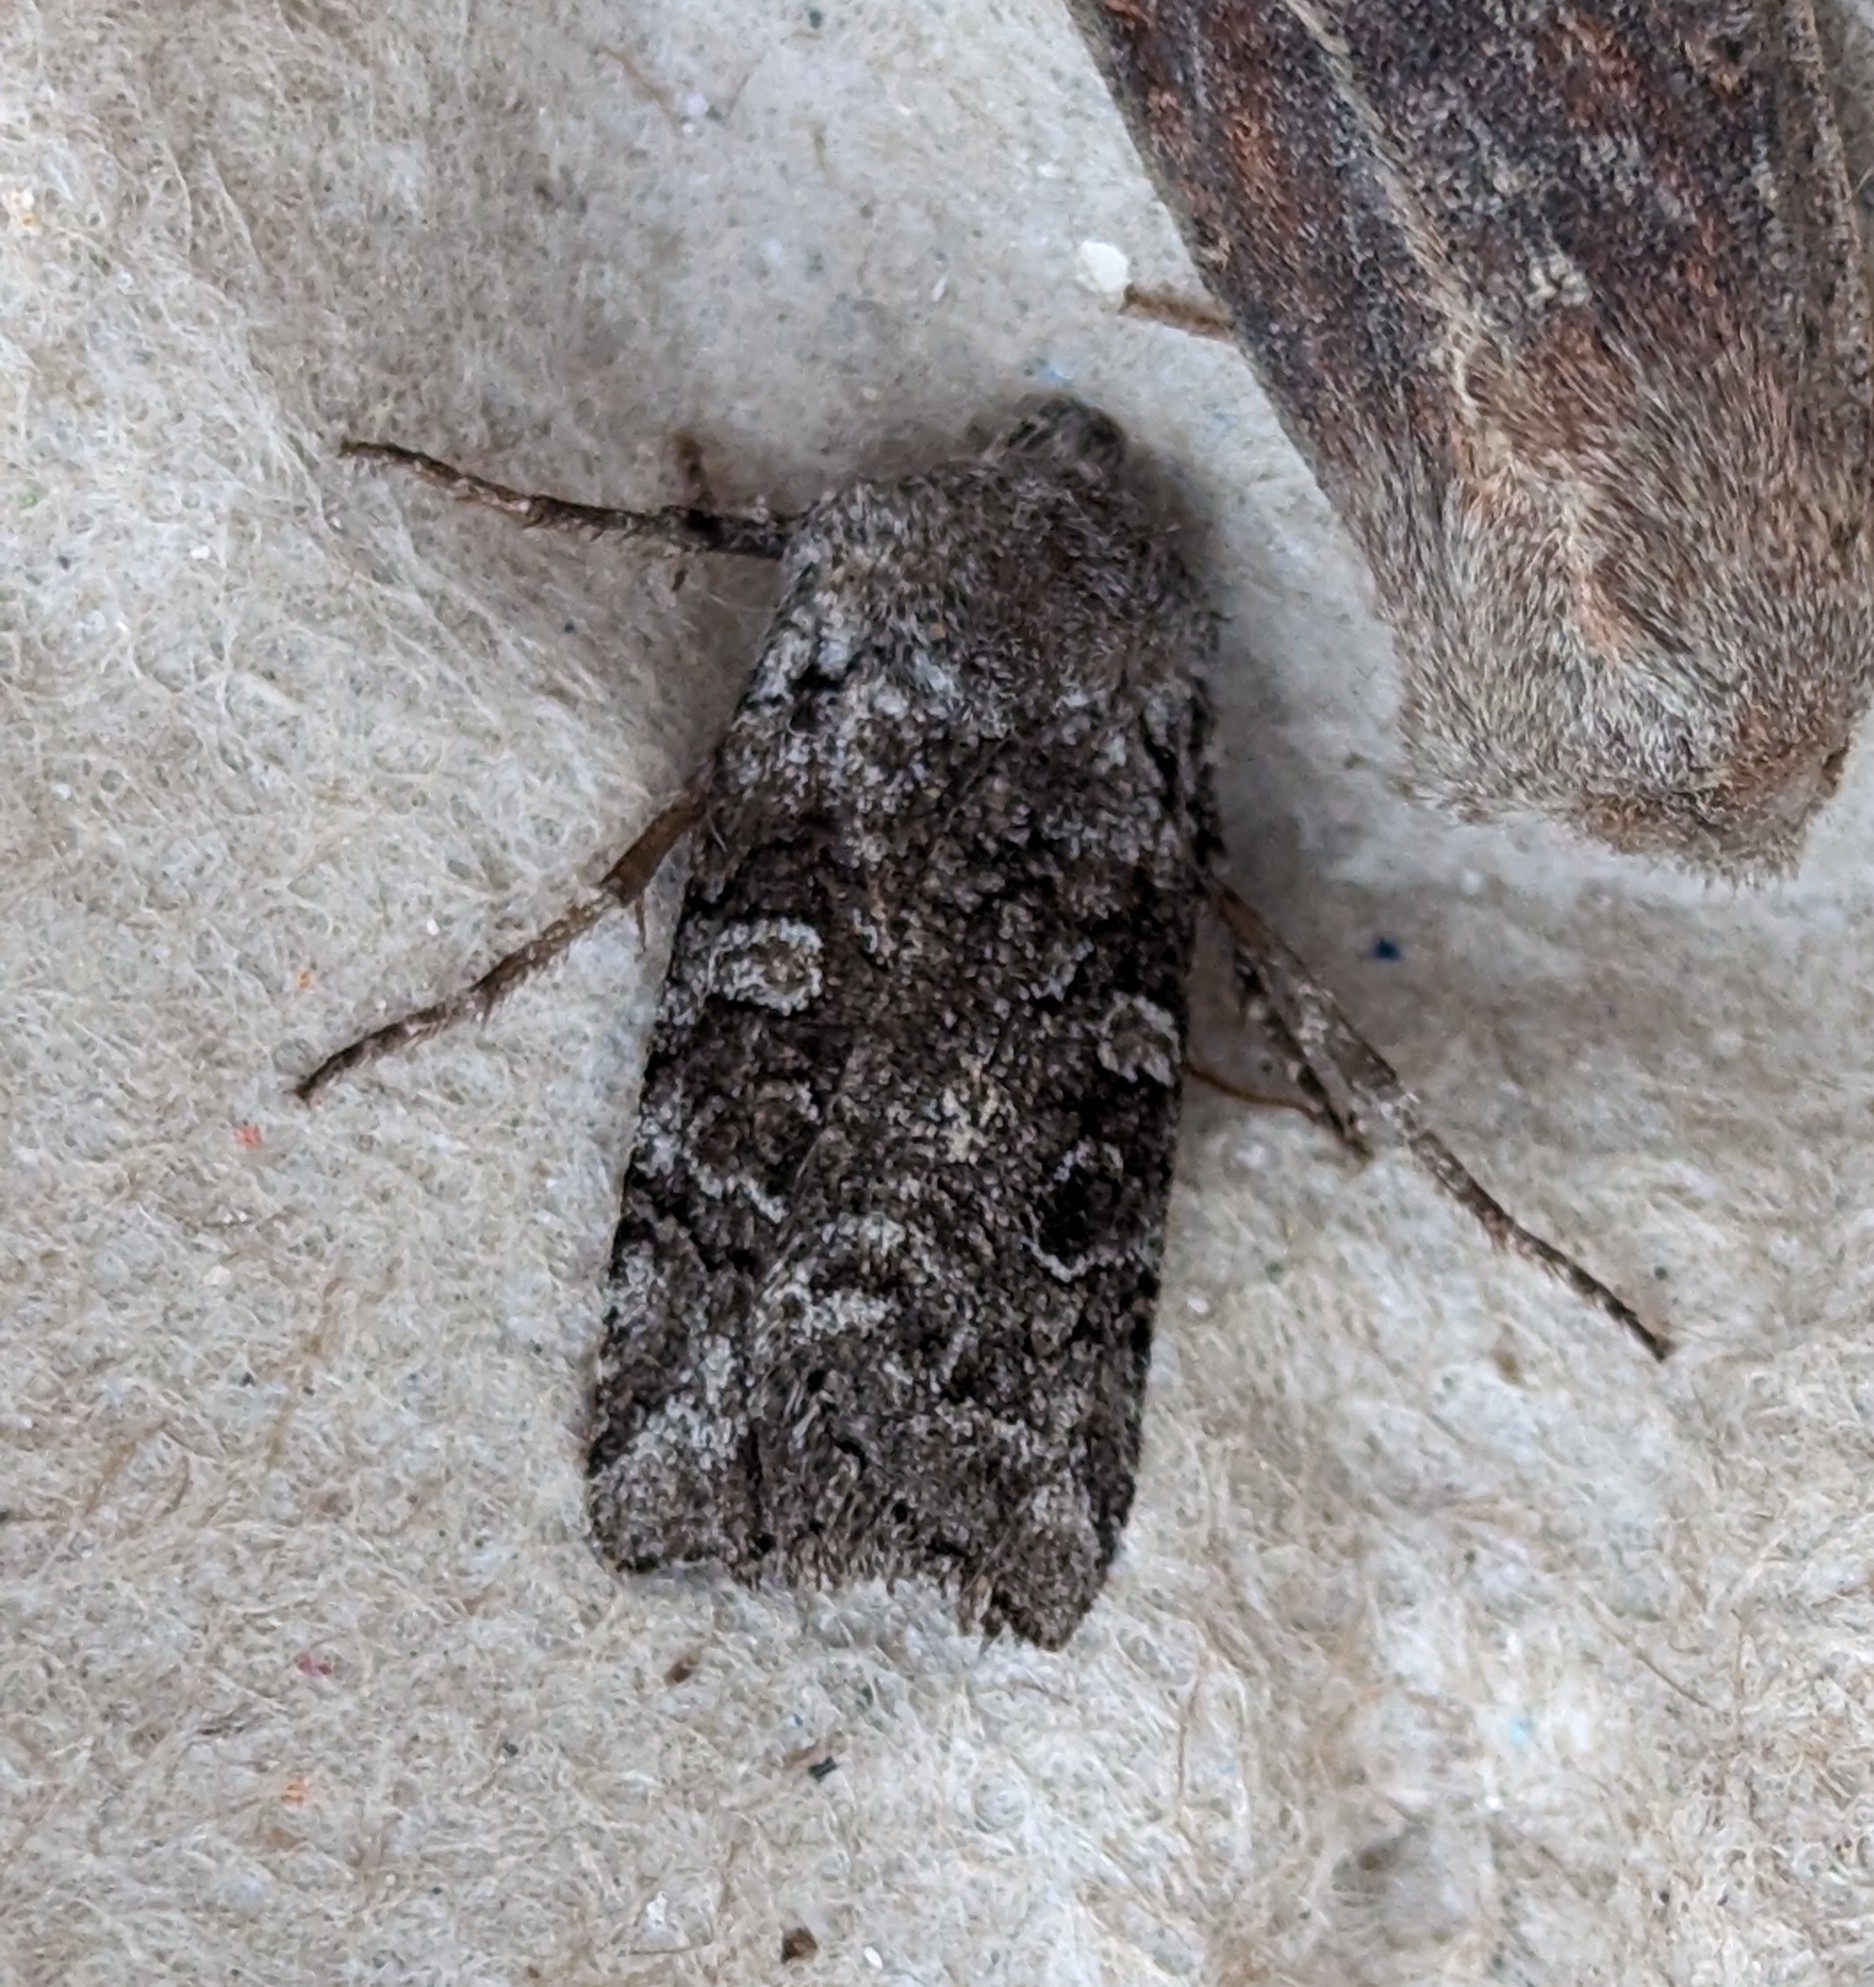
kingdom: Animalia
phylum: Arthropoda
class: Insecta
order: Lepidoptera
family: Noctuidae
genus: Litholomia
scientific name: Litholomia napaea
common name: False pinion moth
